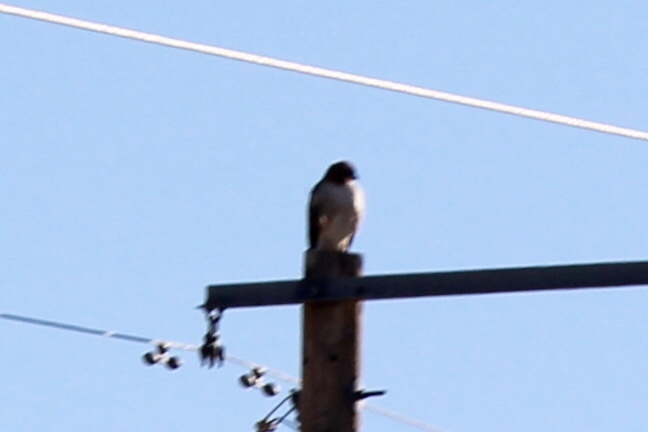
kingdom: Animalia
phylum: Chordata
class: Aves
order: Accipitriformes
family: Accipitridae
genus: Buteo
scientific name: Buteo jamaicensis
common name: Red-tailed hawk
